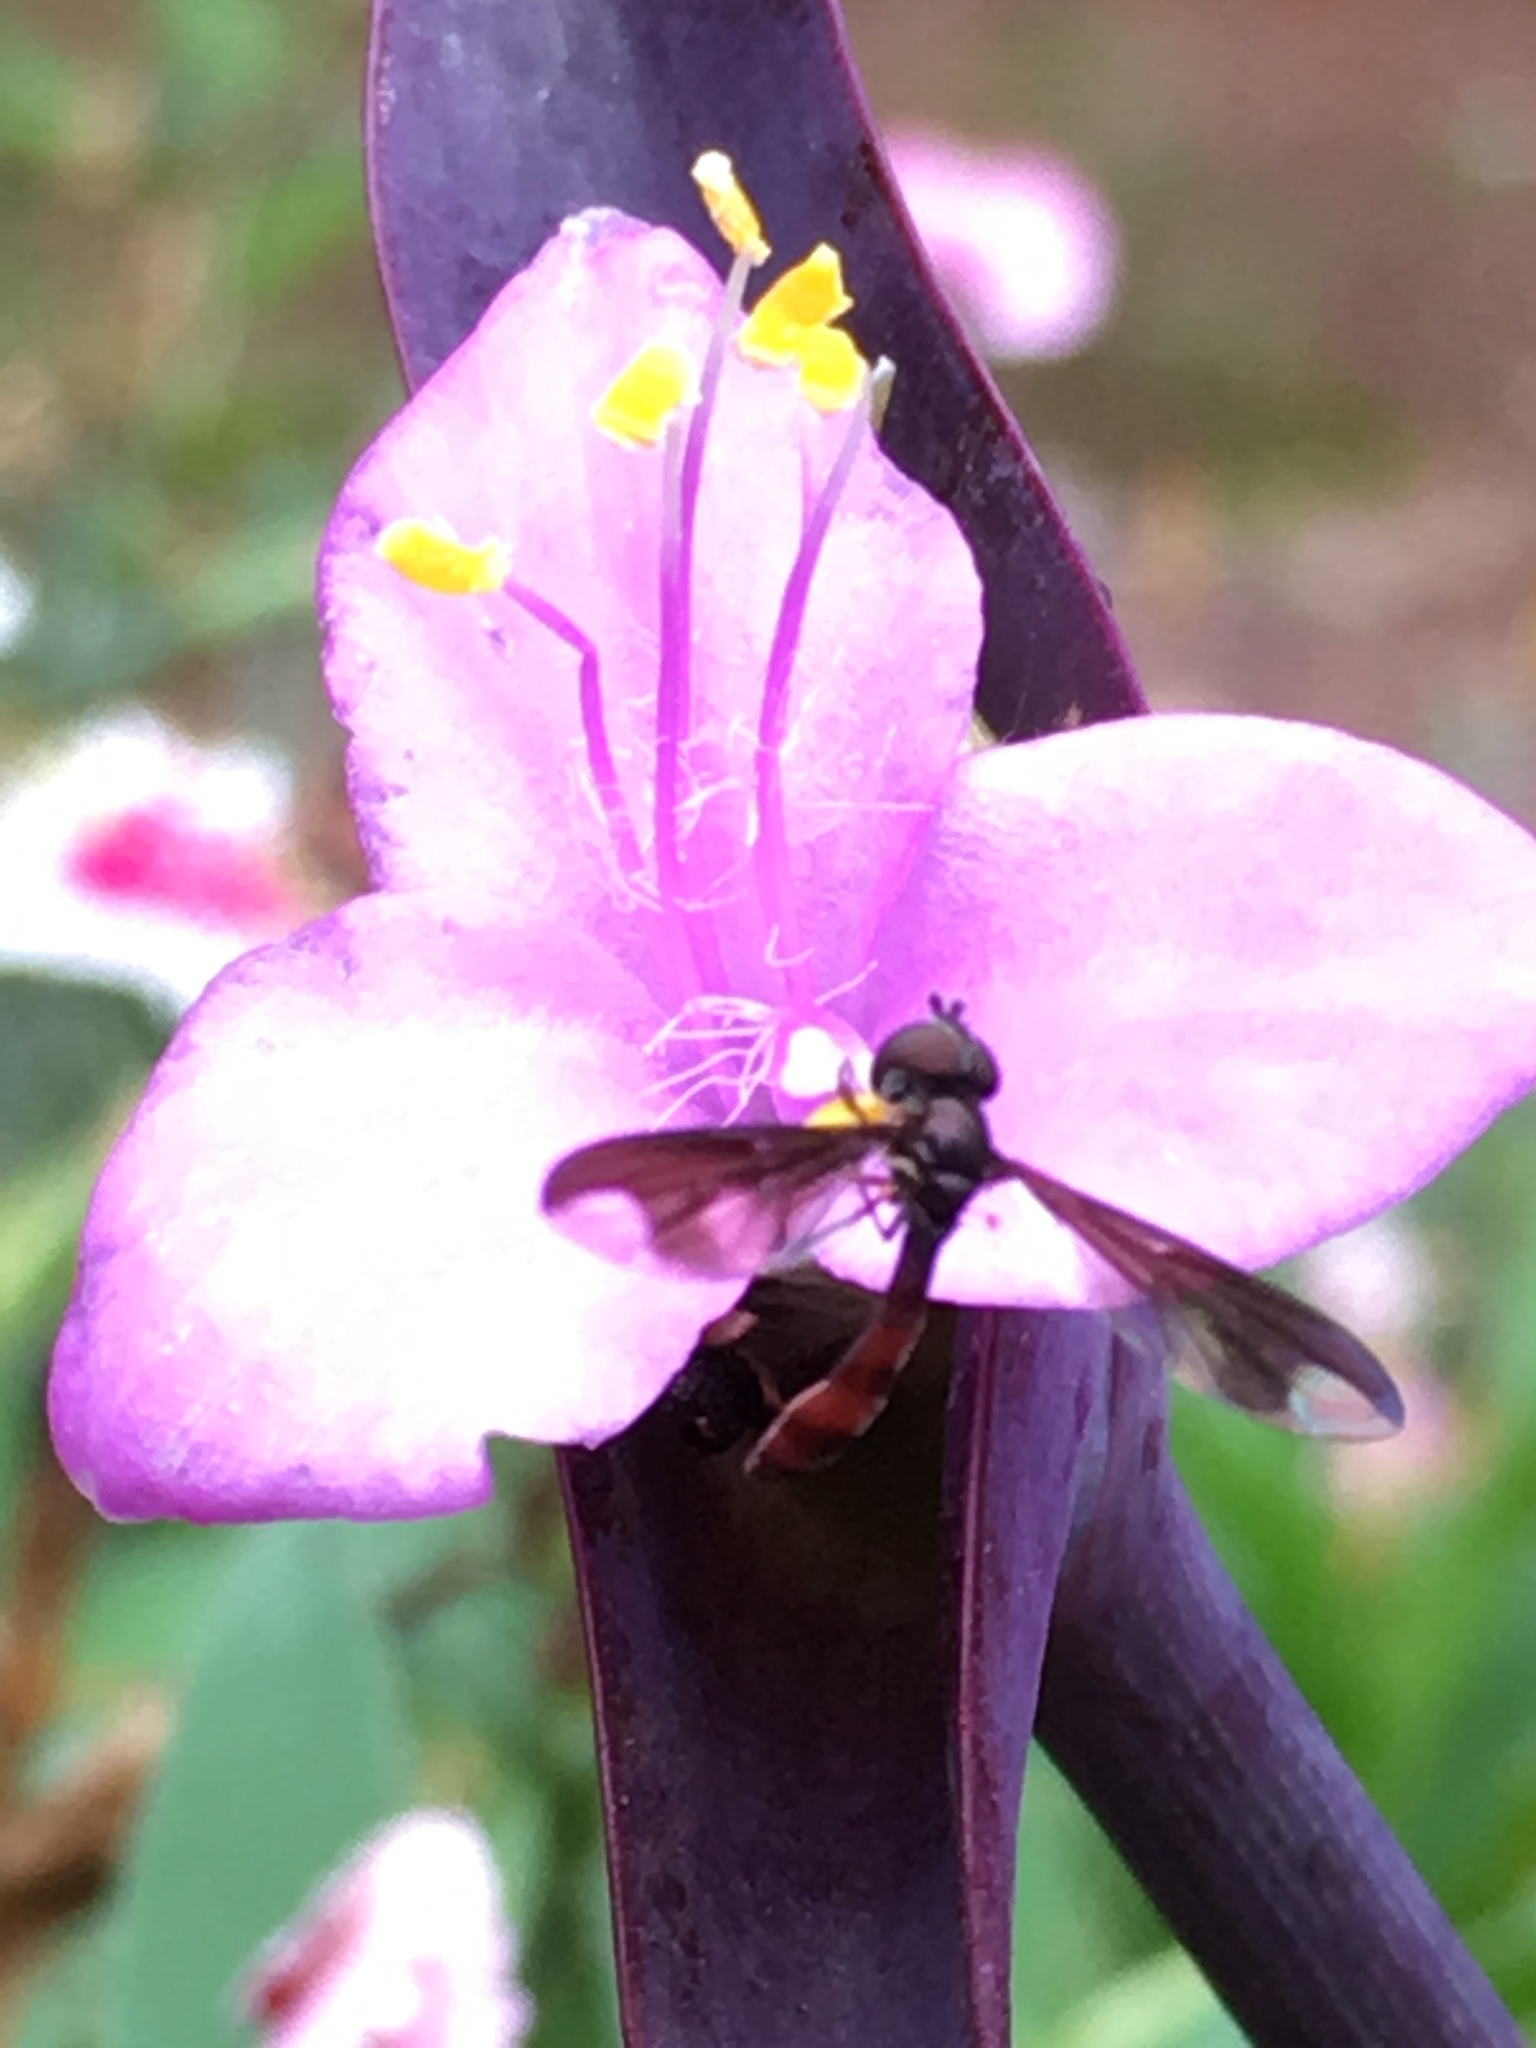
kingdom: Animalia
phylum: Arthropoda
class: Insecta
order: Diptera
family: Syrphidae
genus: Ocyptamus
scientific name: Ocyptamus fuscipennis
